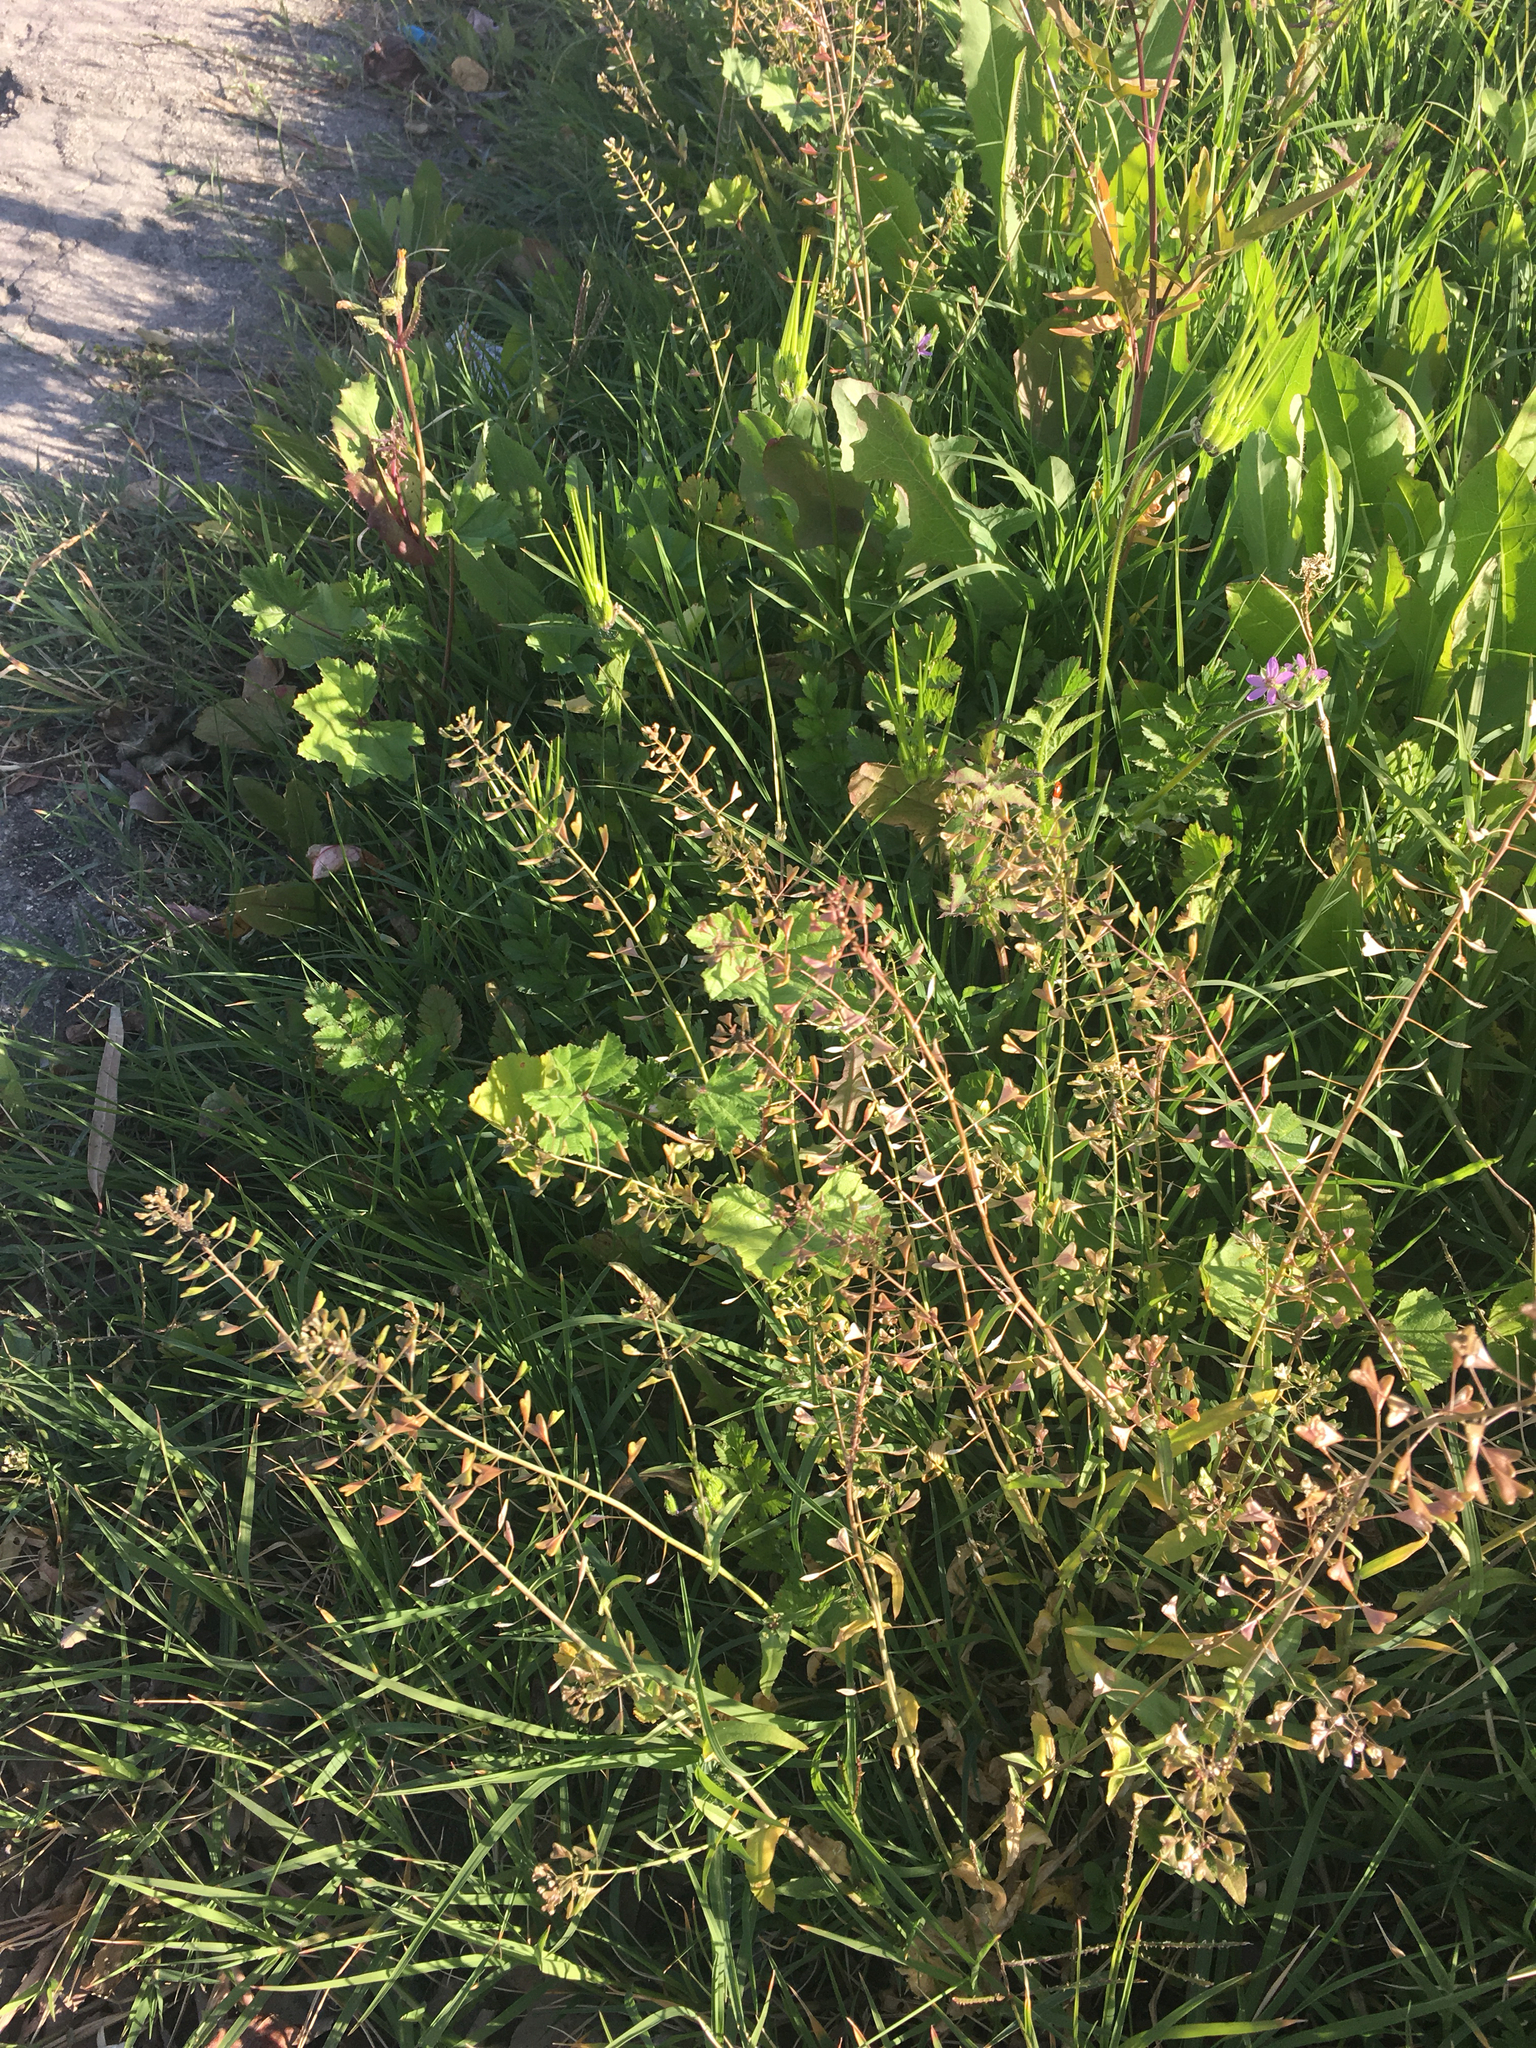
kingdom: Plantae
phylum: Tracheophyta
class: Magnoliopsida
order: Brassicales
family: Brassicaceae
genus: Capsella
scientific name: Capsella bursa-pastoris
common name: Shepherd's purse
